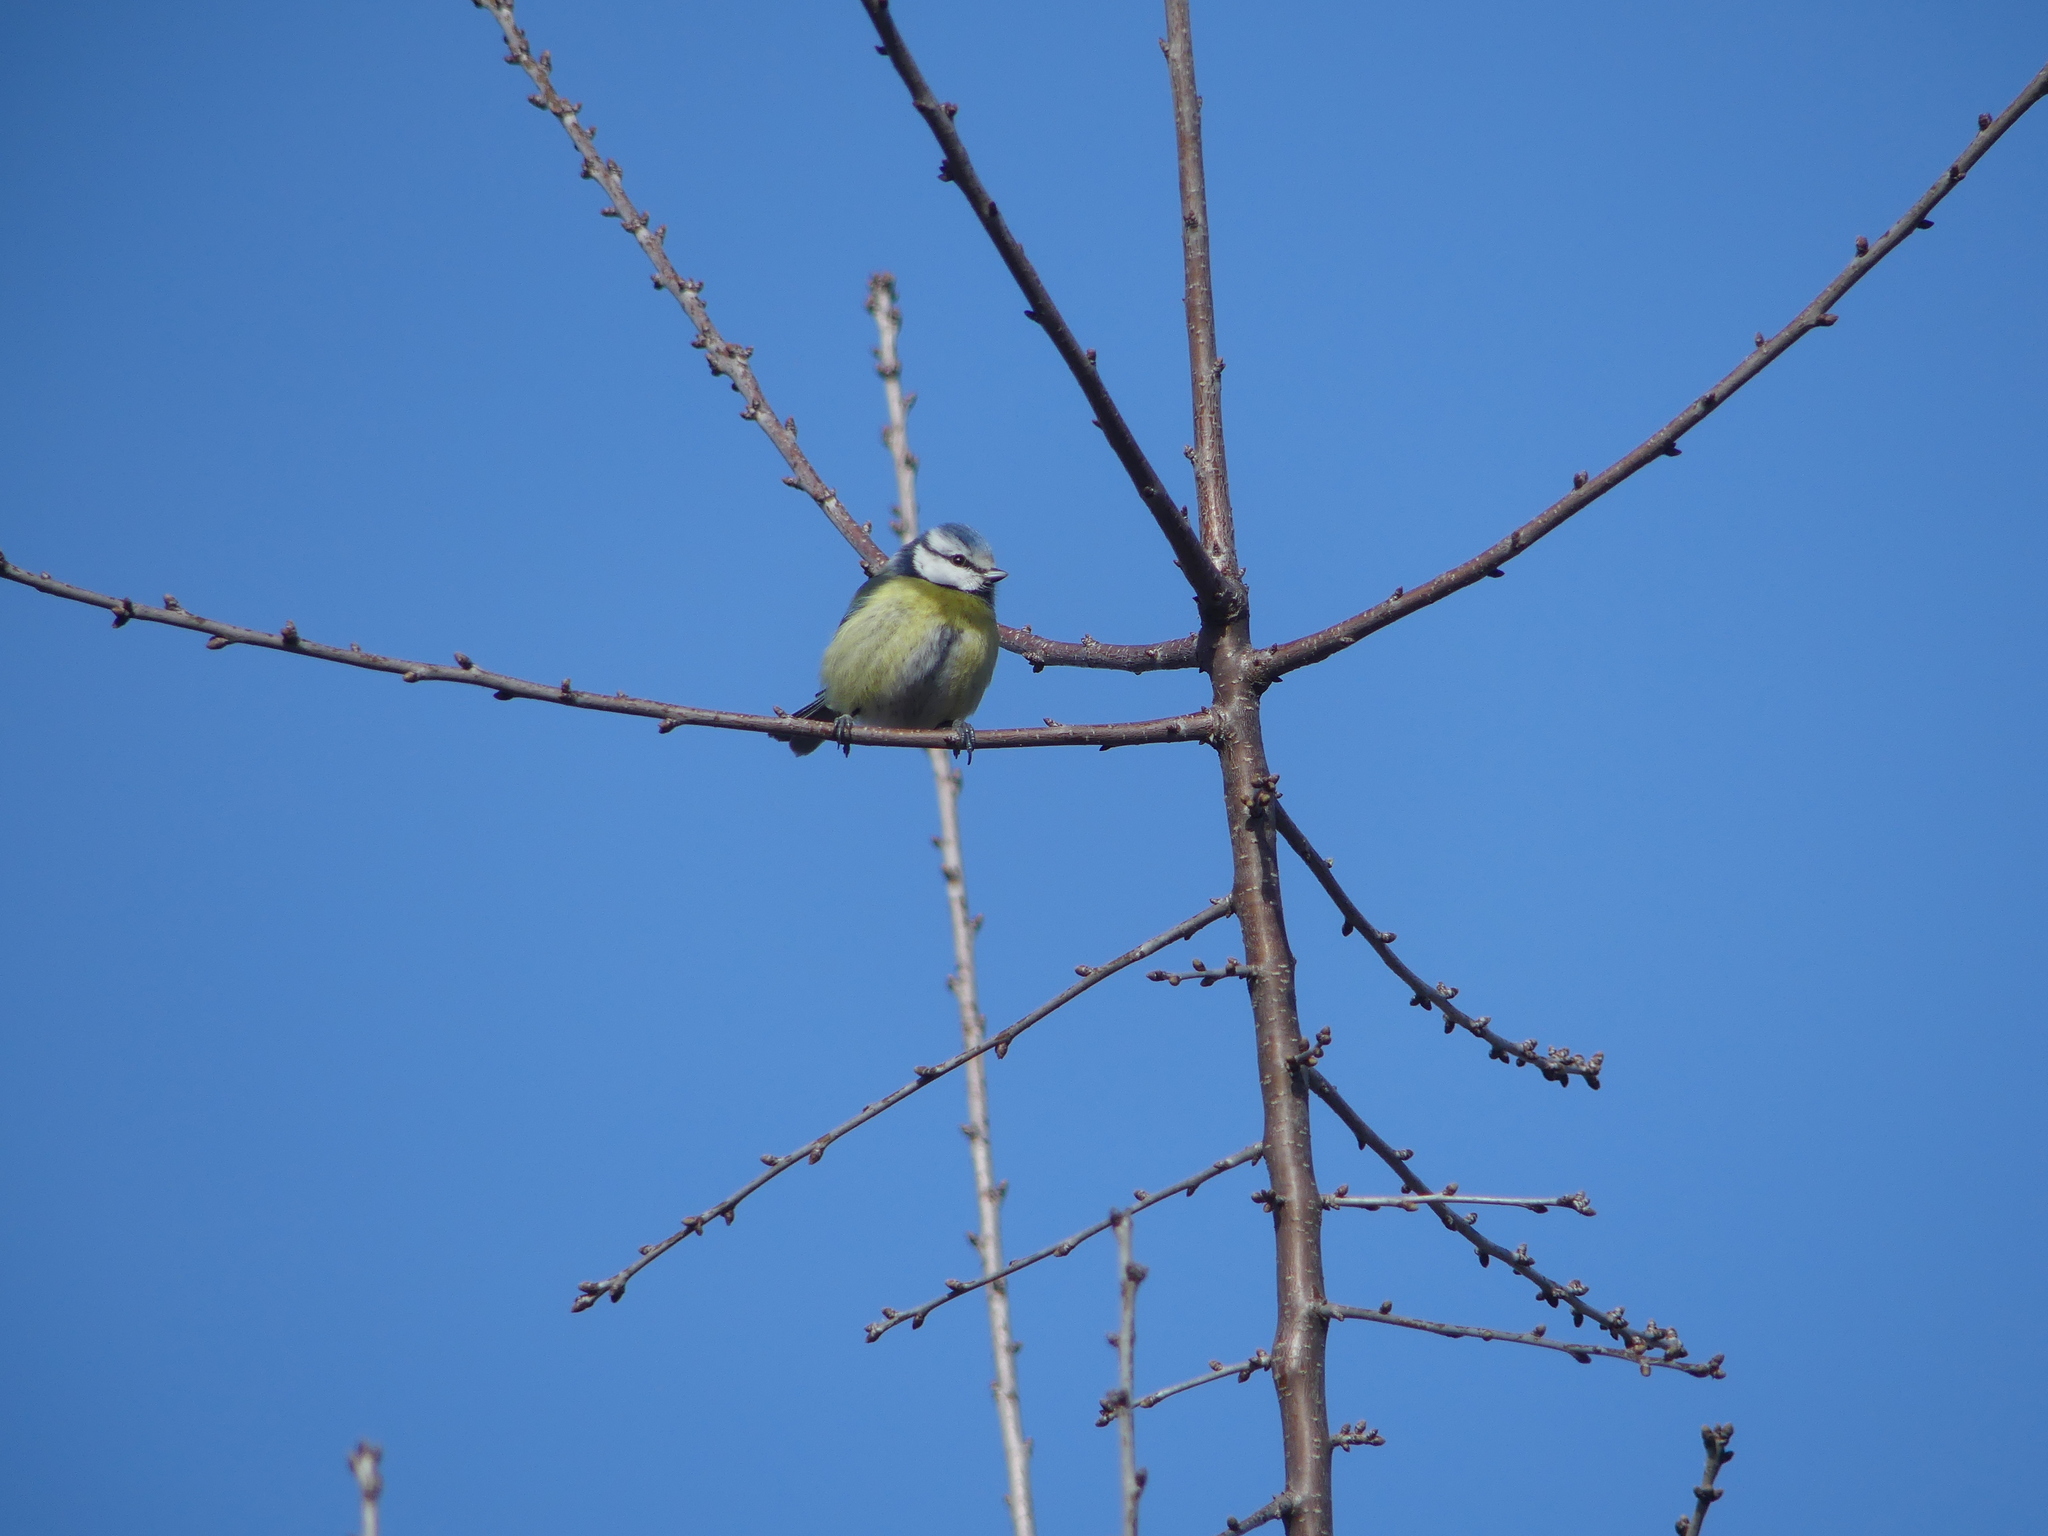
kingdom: Animalia
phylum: Chordata
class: Aves
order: Passeriformes
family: Paridae
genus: Cyanistes
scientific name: Cyanistes caeruleus
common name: Eurasian blue tit
